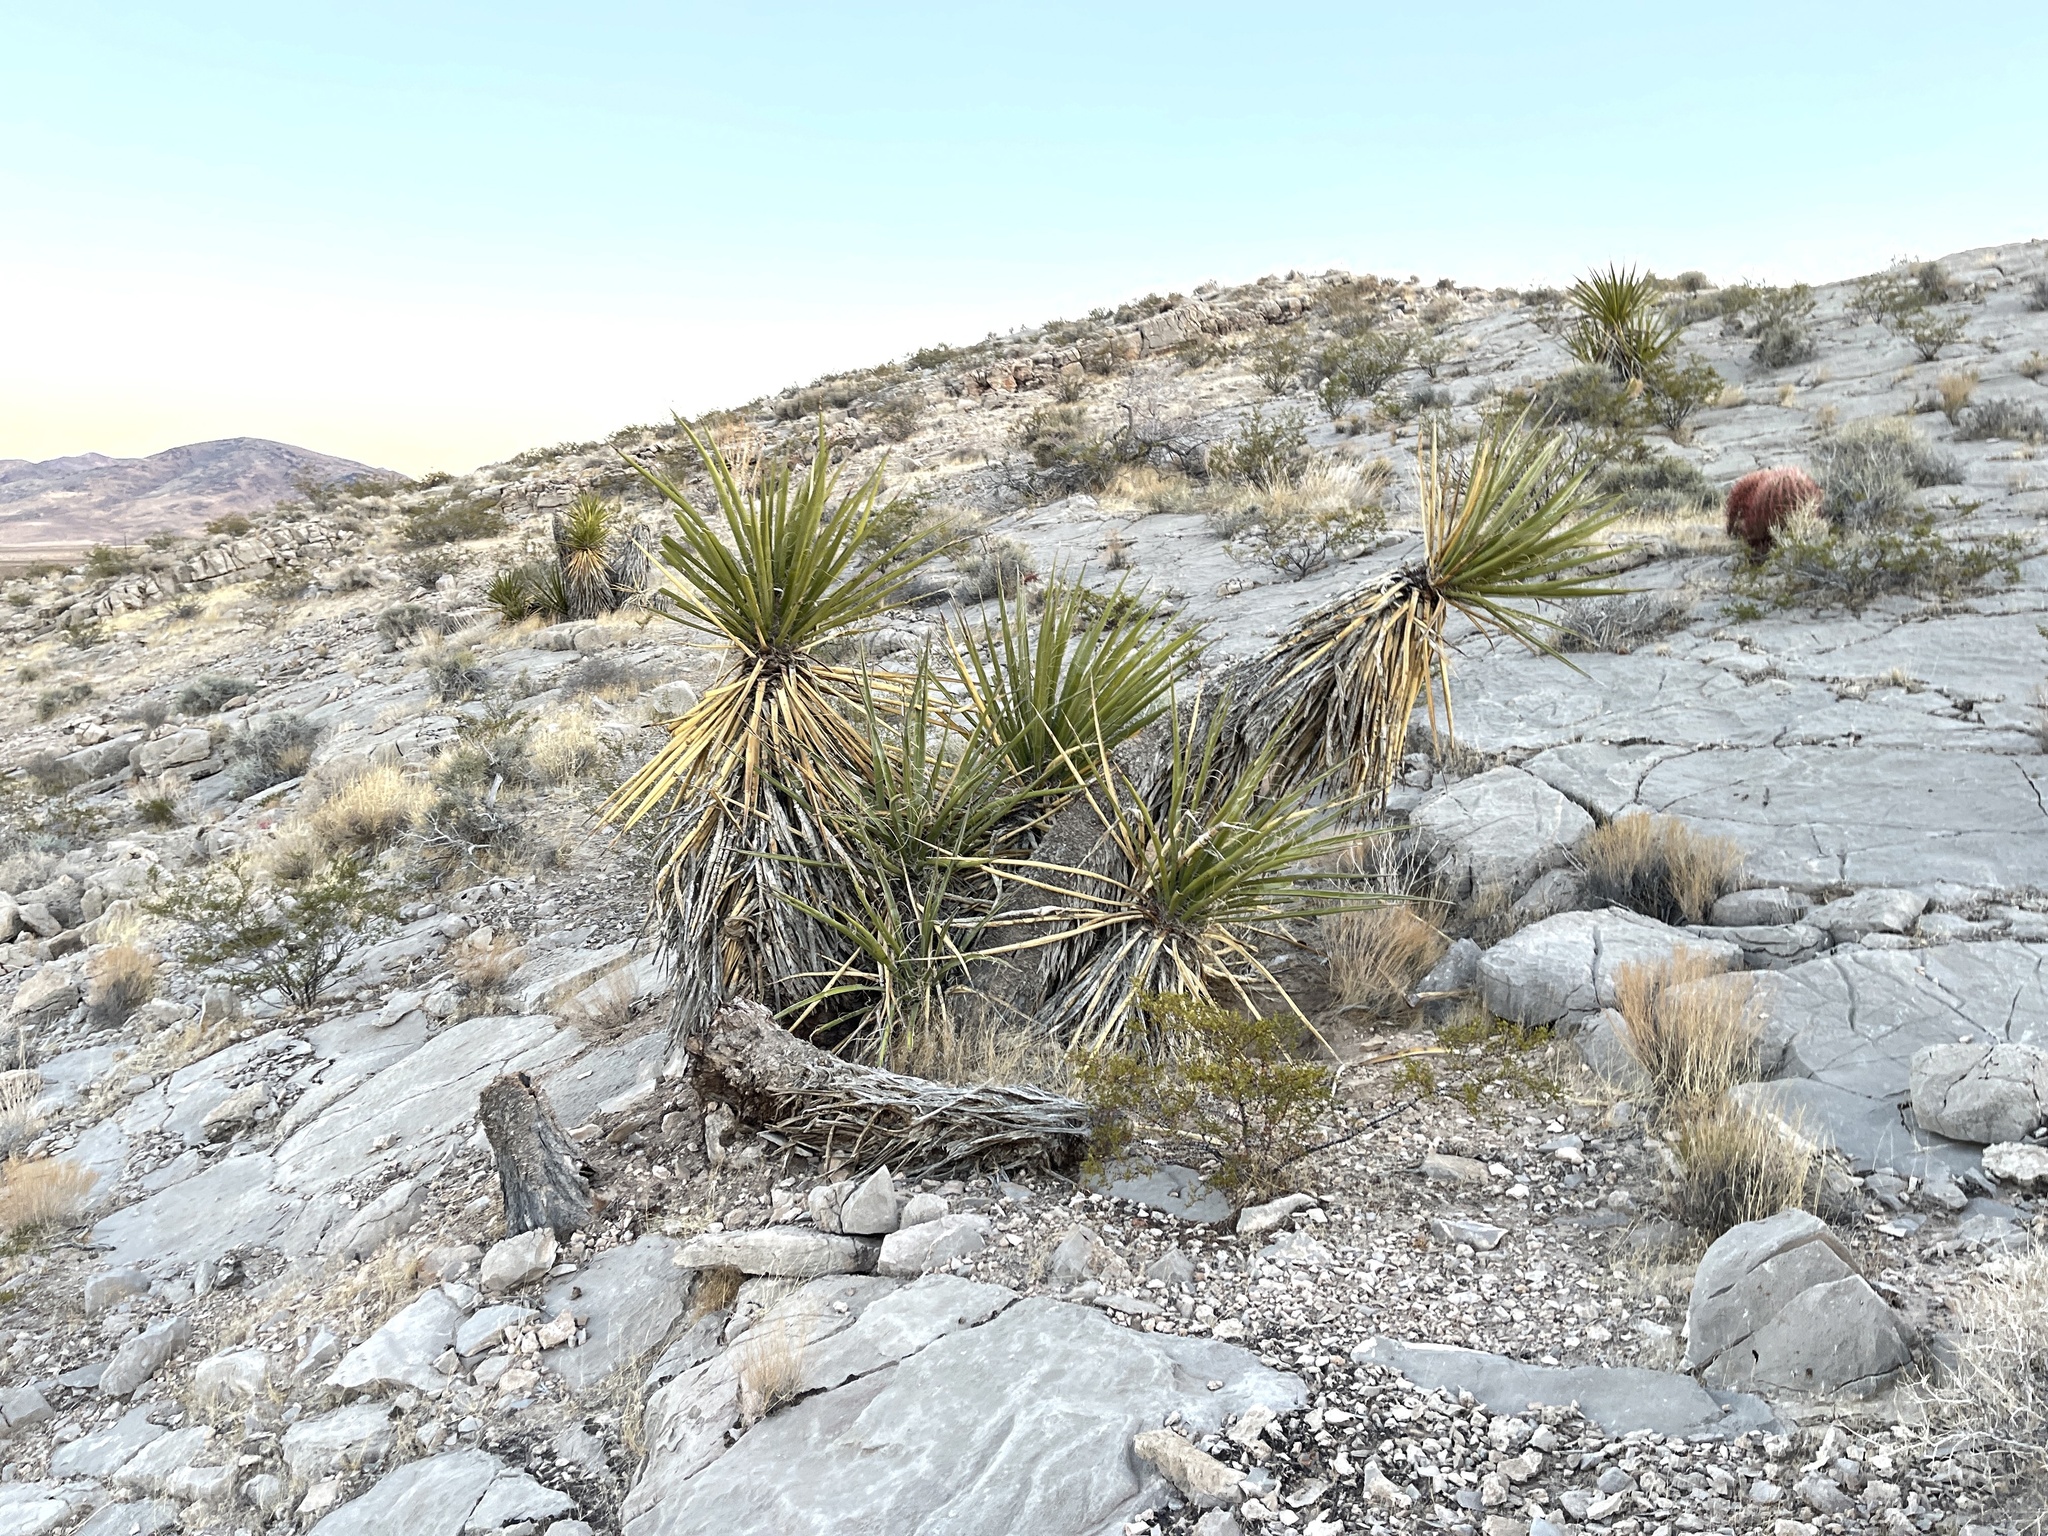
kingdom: Plantae
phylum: Tracheophyta
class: Liliopsida
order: Asparagales
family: Asparagaceae
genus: Yucca
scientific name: Yucca schidigera
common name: Mojave yucca
